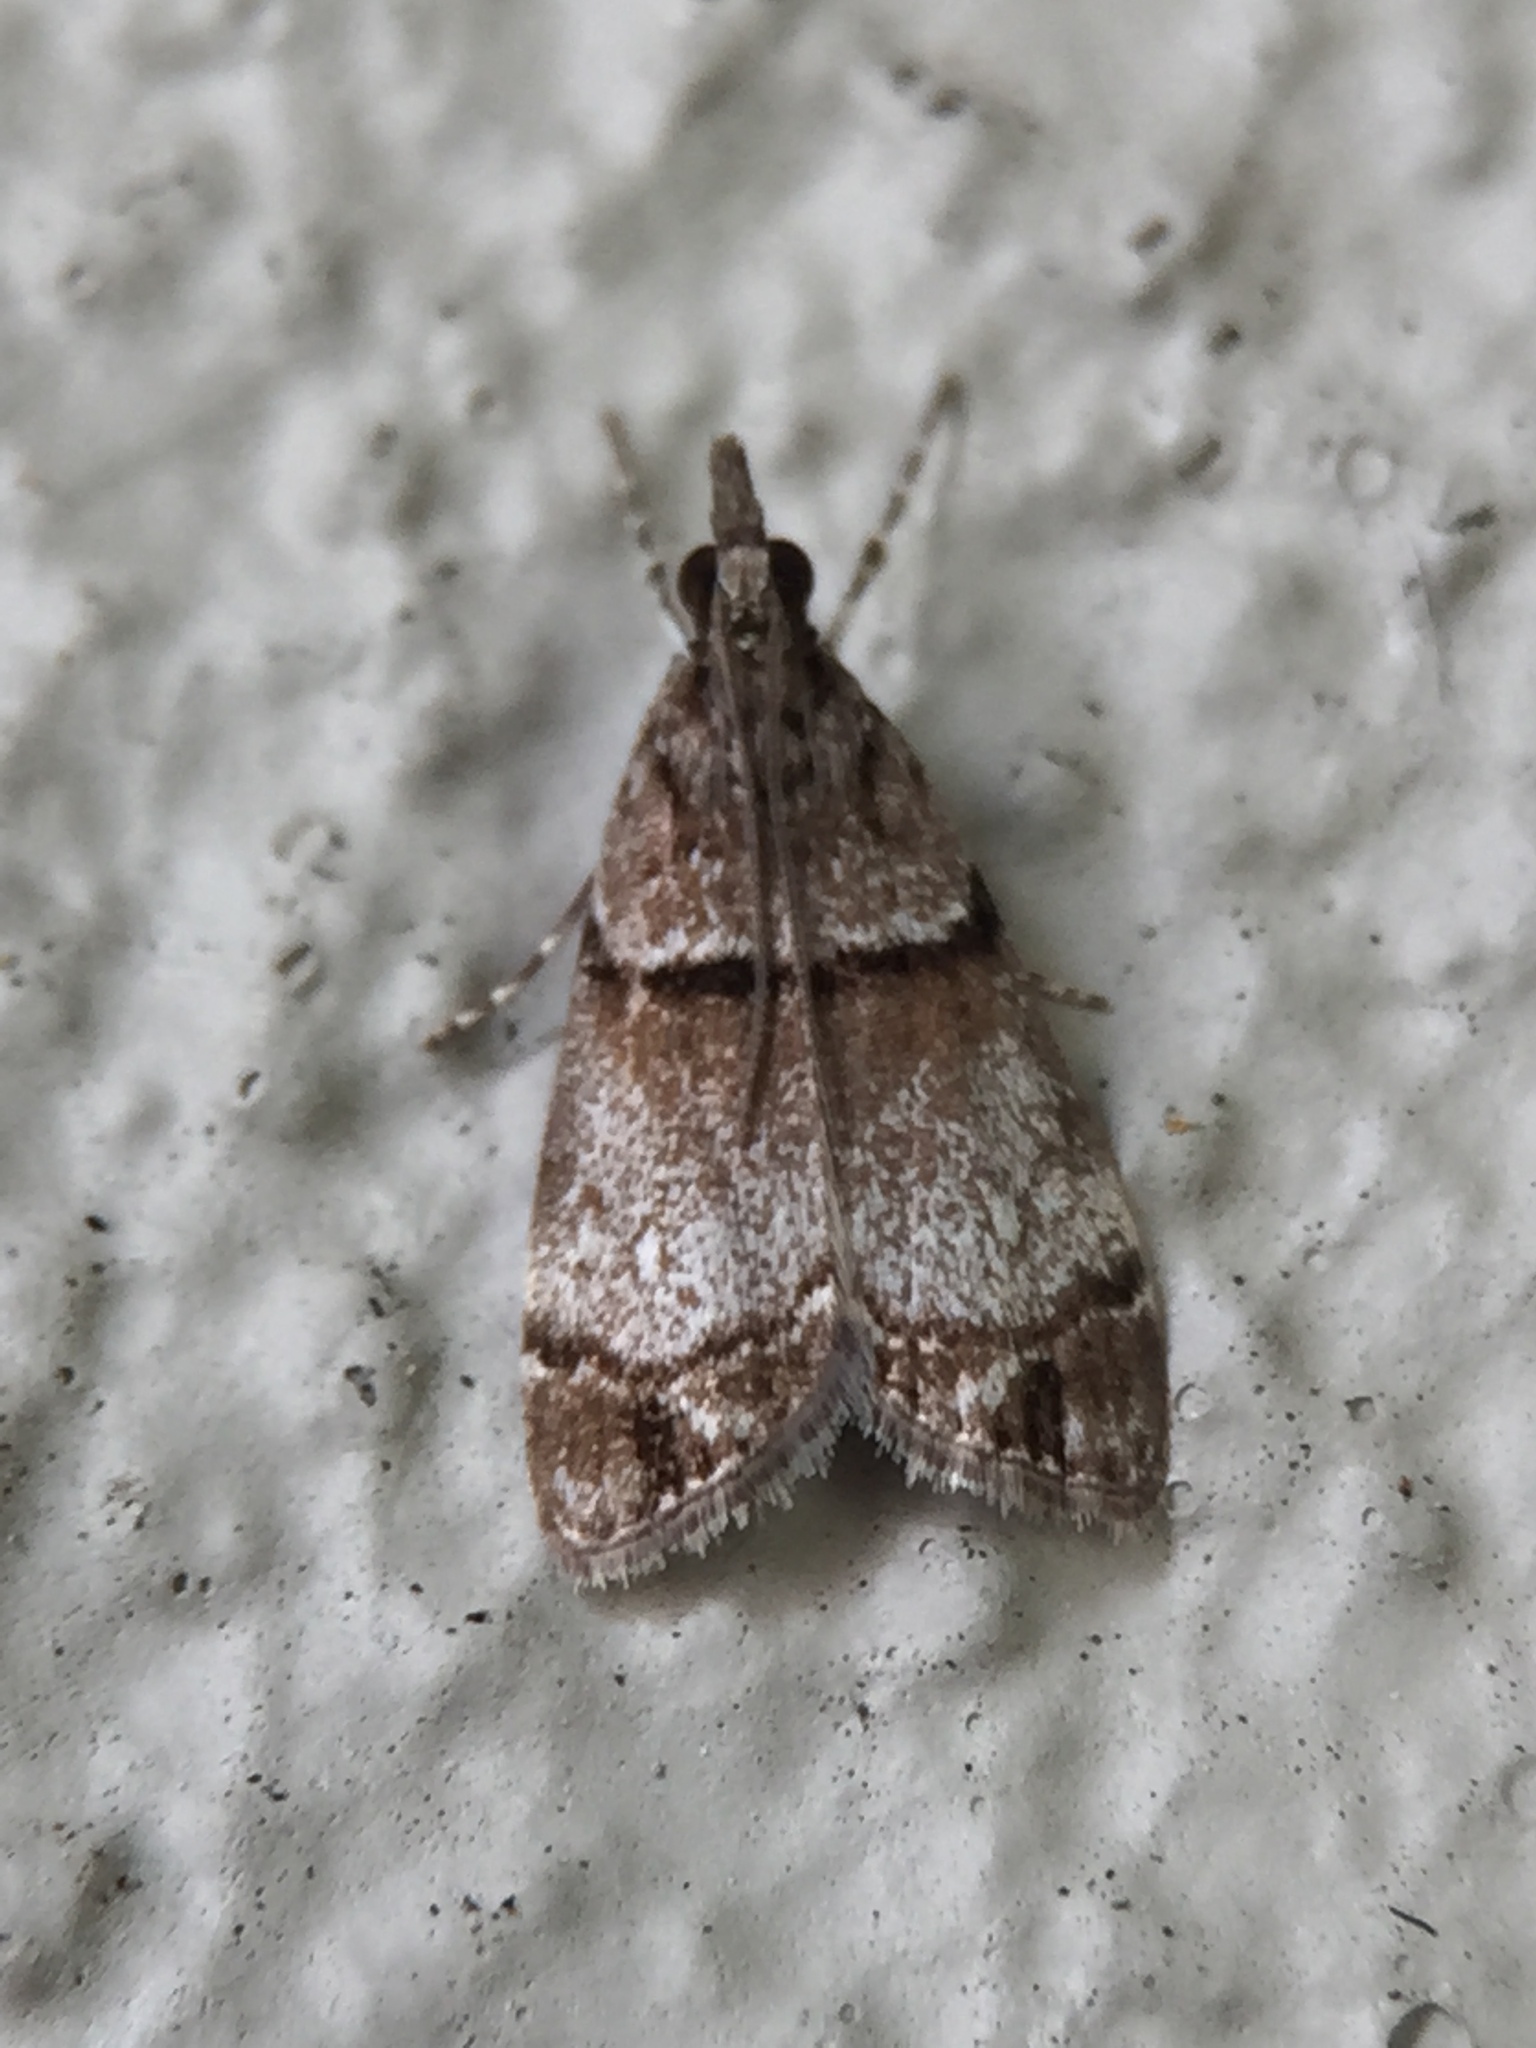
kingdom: Animalia
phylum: Arthropoda
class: Insecta
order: Lepidoptera
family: Crambidae
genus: Eudonia
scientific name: Eudonia choristis
